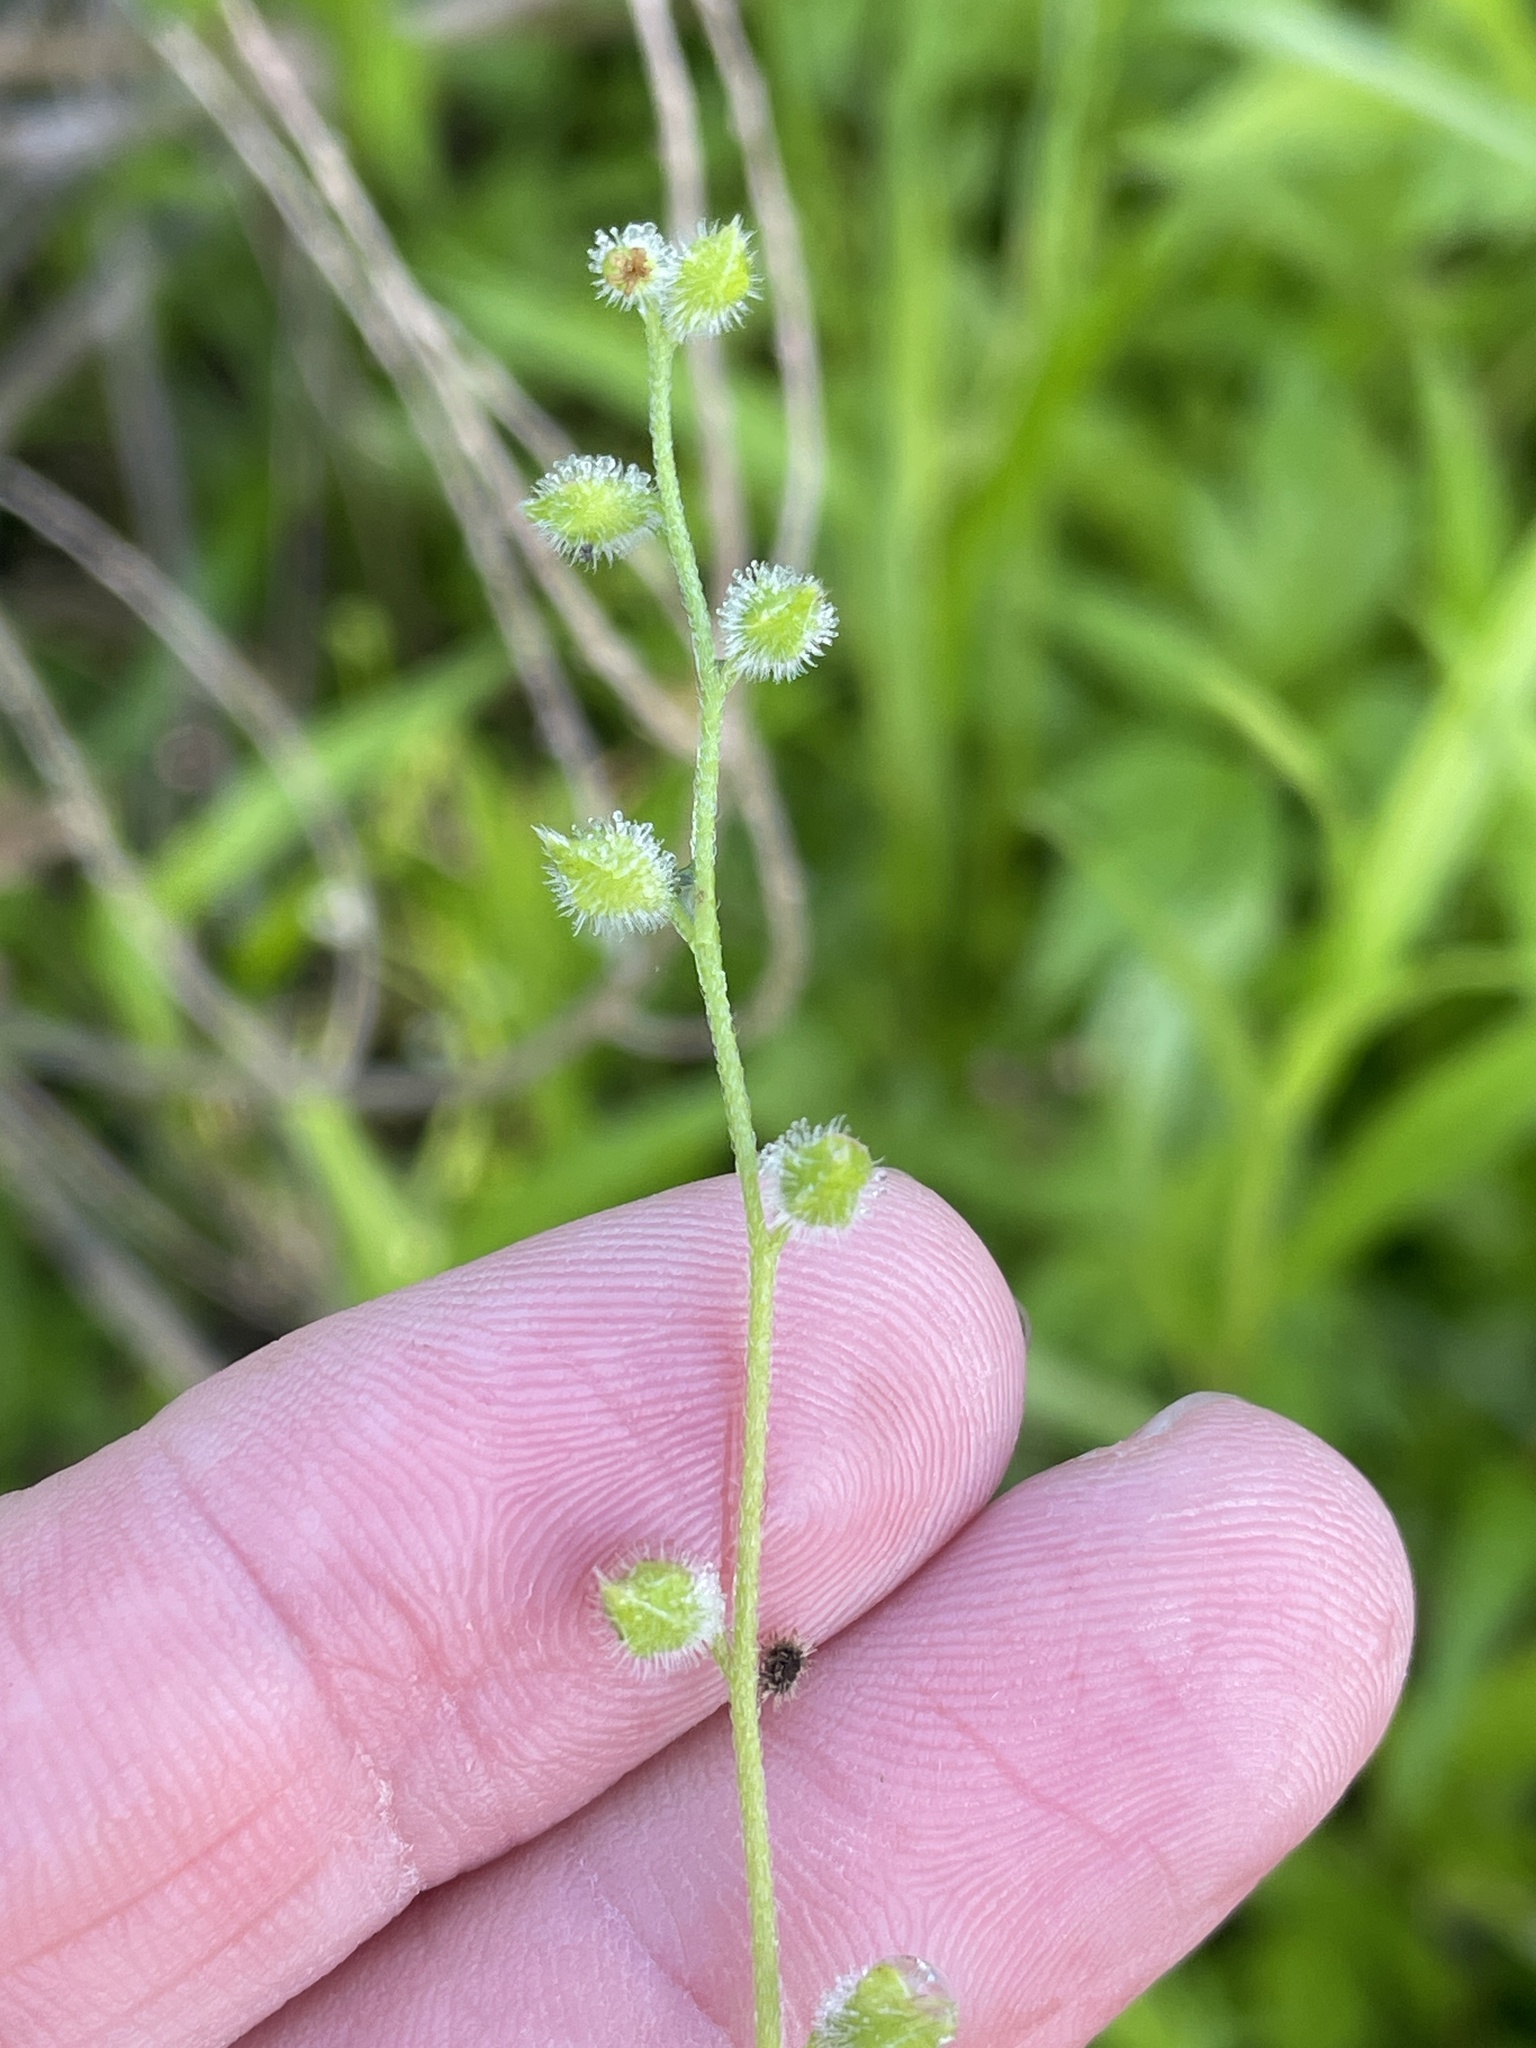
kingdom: Plantae
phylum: Tracheophyta
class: Magnoliopsida
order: Boraginales
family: Boraginaceae
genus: Myosotis
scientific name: Myosotis macrosperma
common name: Large-seed forget-me-not
